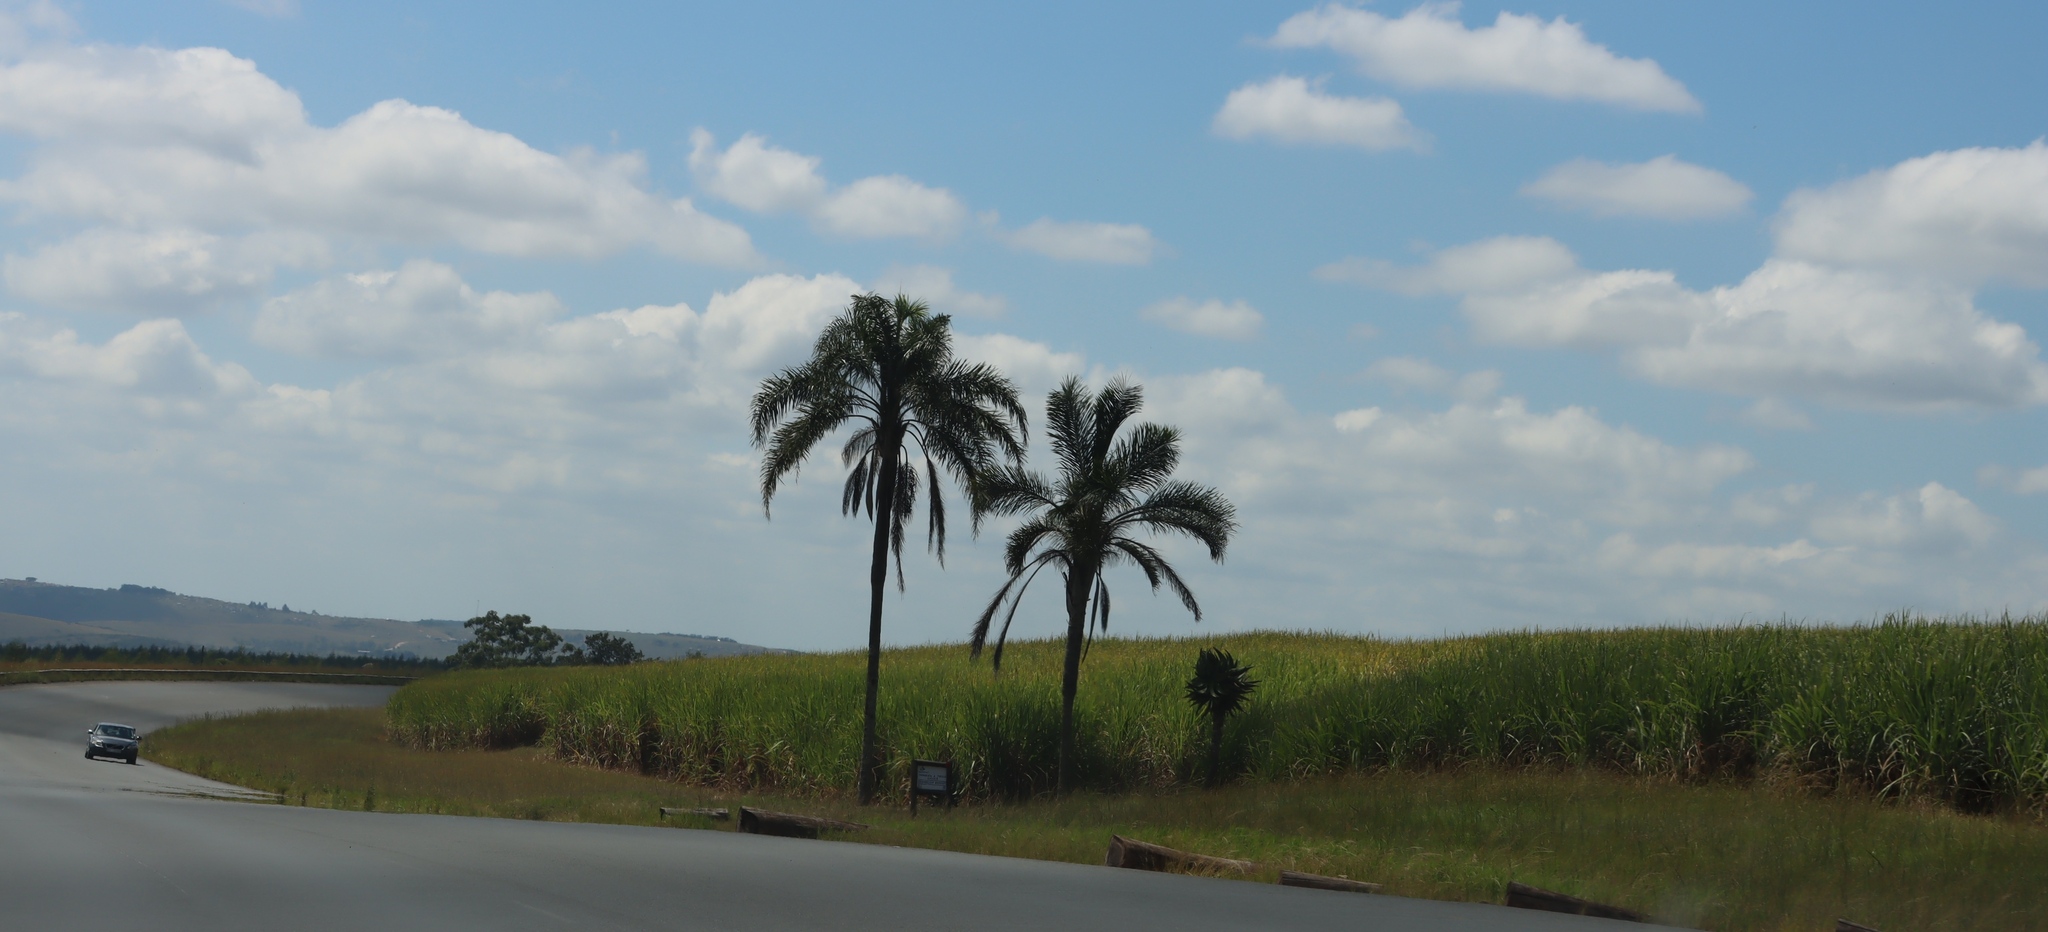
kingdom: Plantae
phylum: Tracheophyta
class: Liliopsida
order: Arecales
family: Arecaceae
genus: Syagrus
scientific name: Syagrus romanzoffiana
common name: Queen palm
